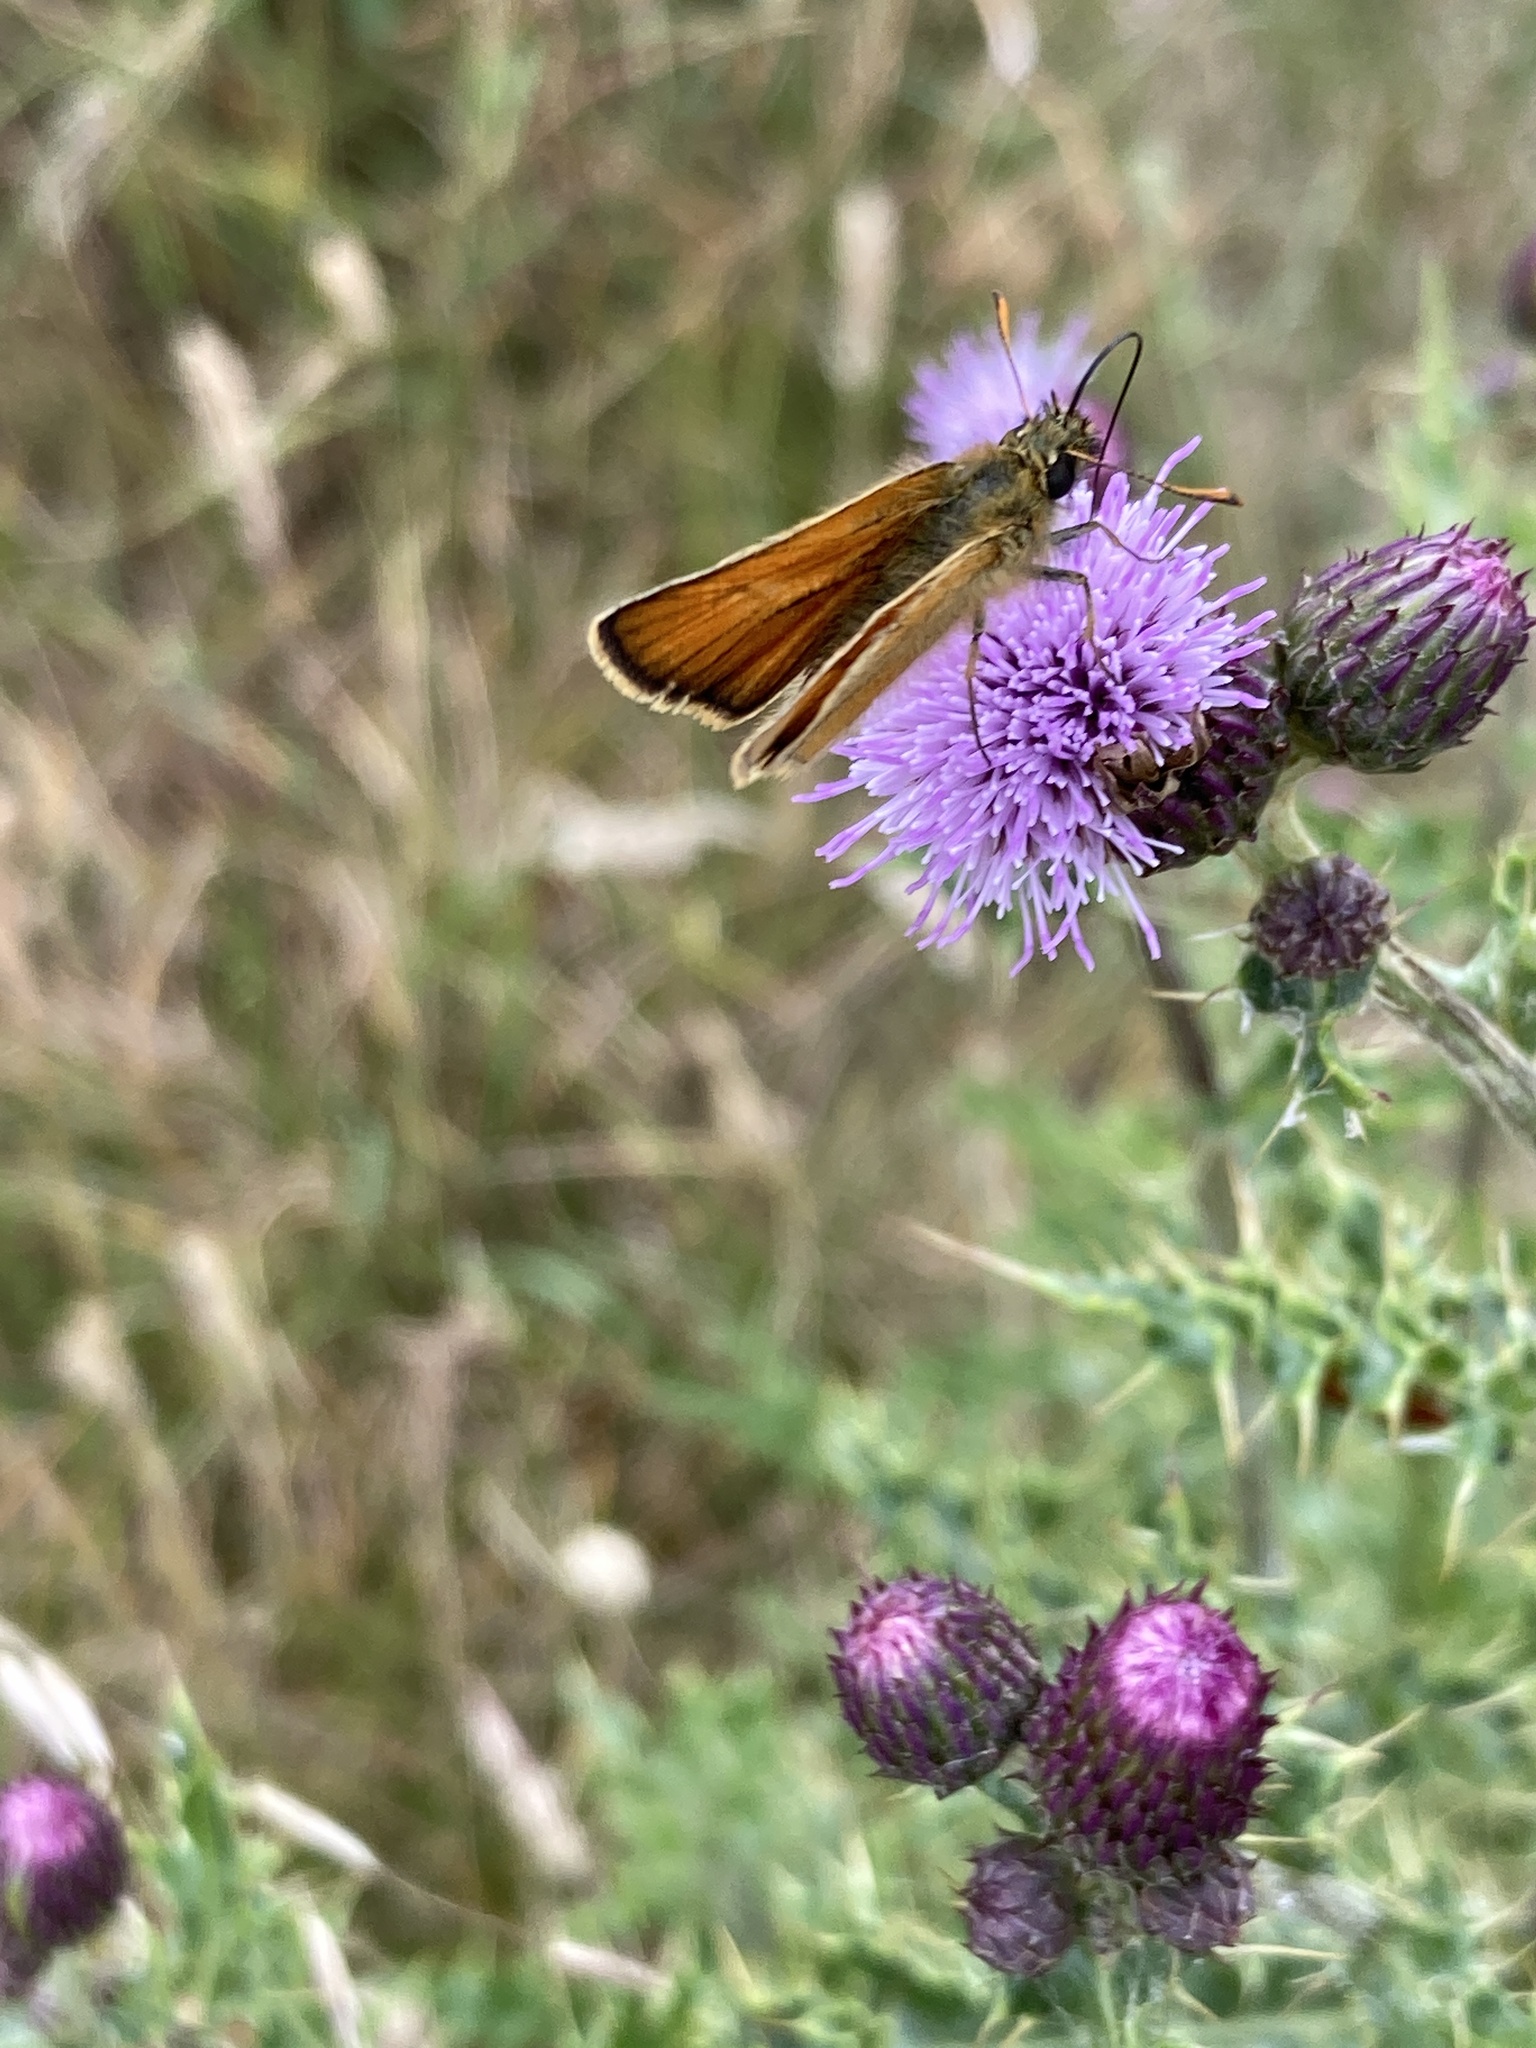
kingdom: Animalia
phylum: Arthropoda
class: Insecta
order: Lepidoptera
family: Hesperiidae
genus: Thymelicus
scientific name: Thymelicus sylvestris
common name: Small skipper
